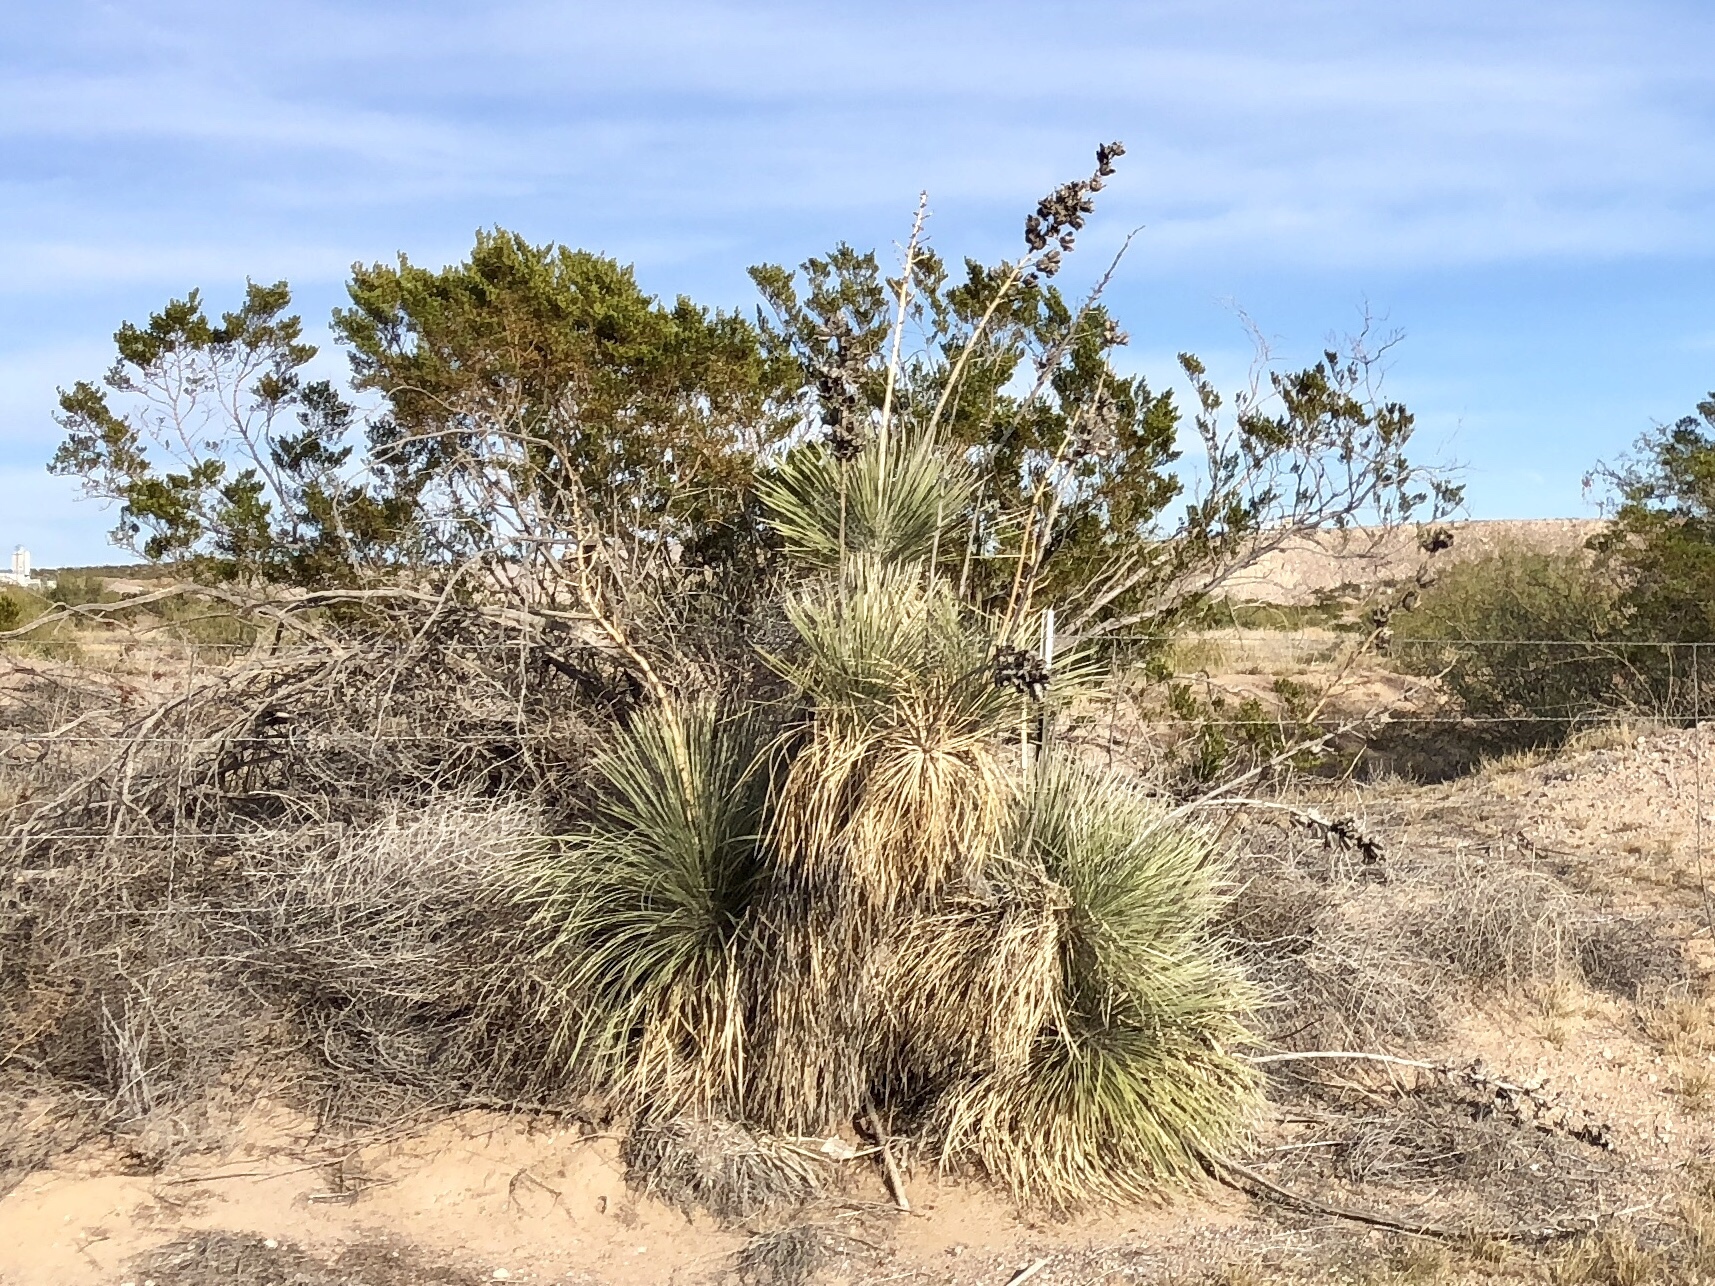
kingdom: Plantae
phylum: Tracheophyta
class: Liliopsida
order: Asparagales
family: Asparagaceae
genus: Yucca
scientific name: Yucca elata
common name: Palmella
